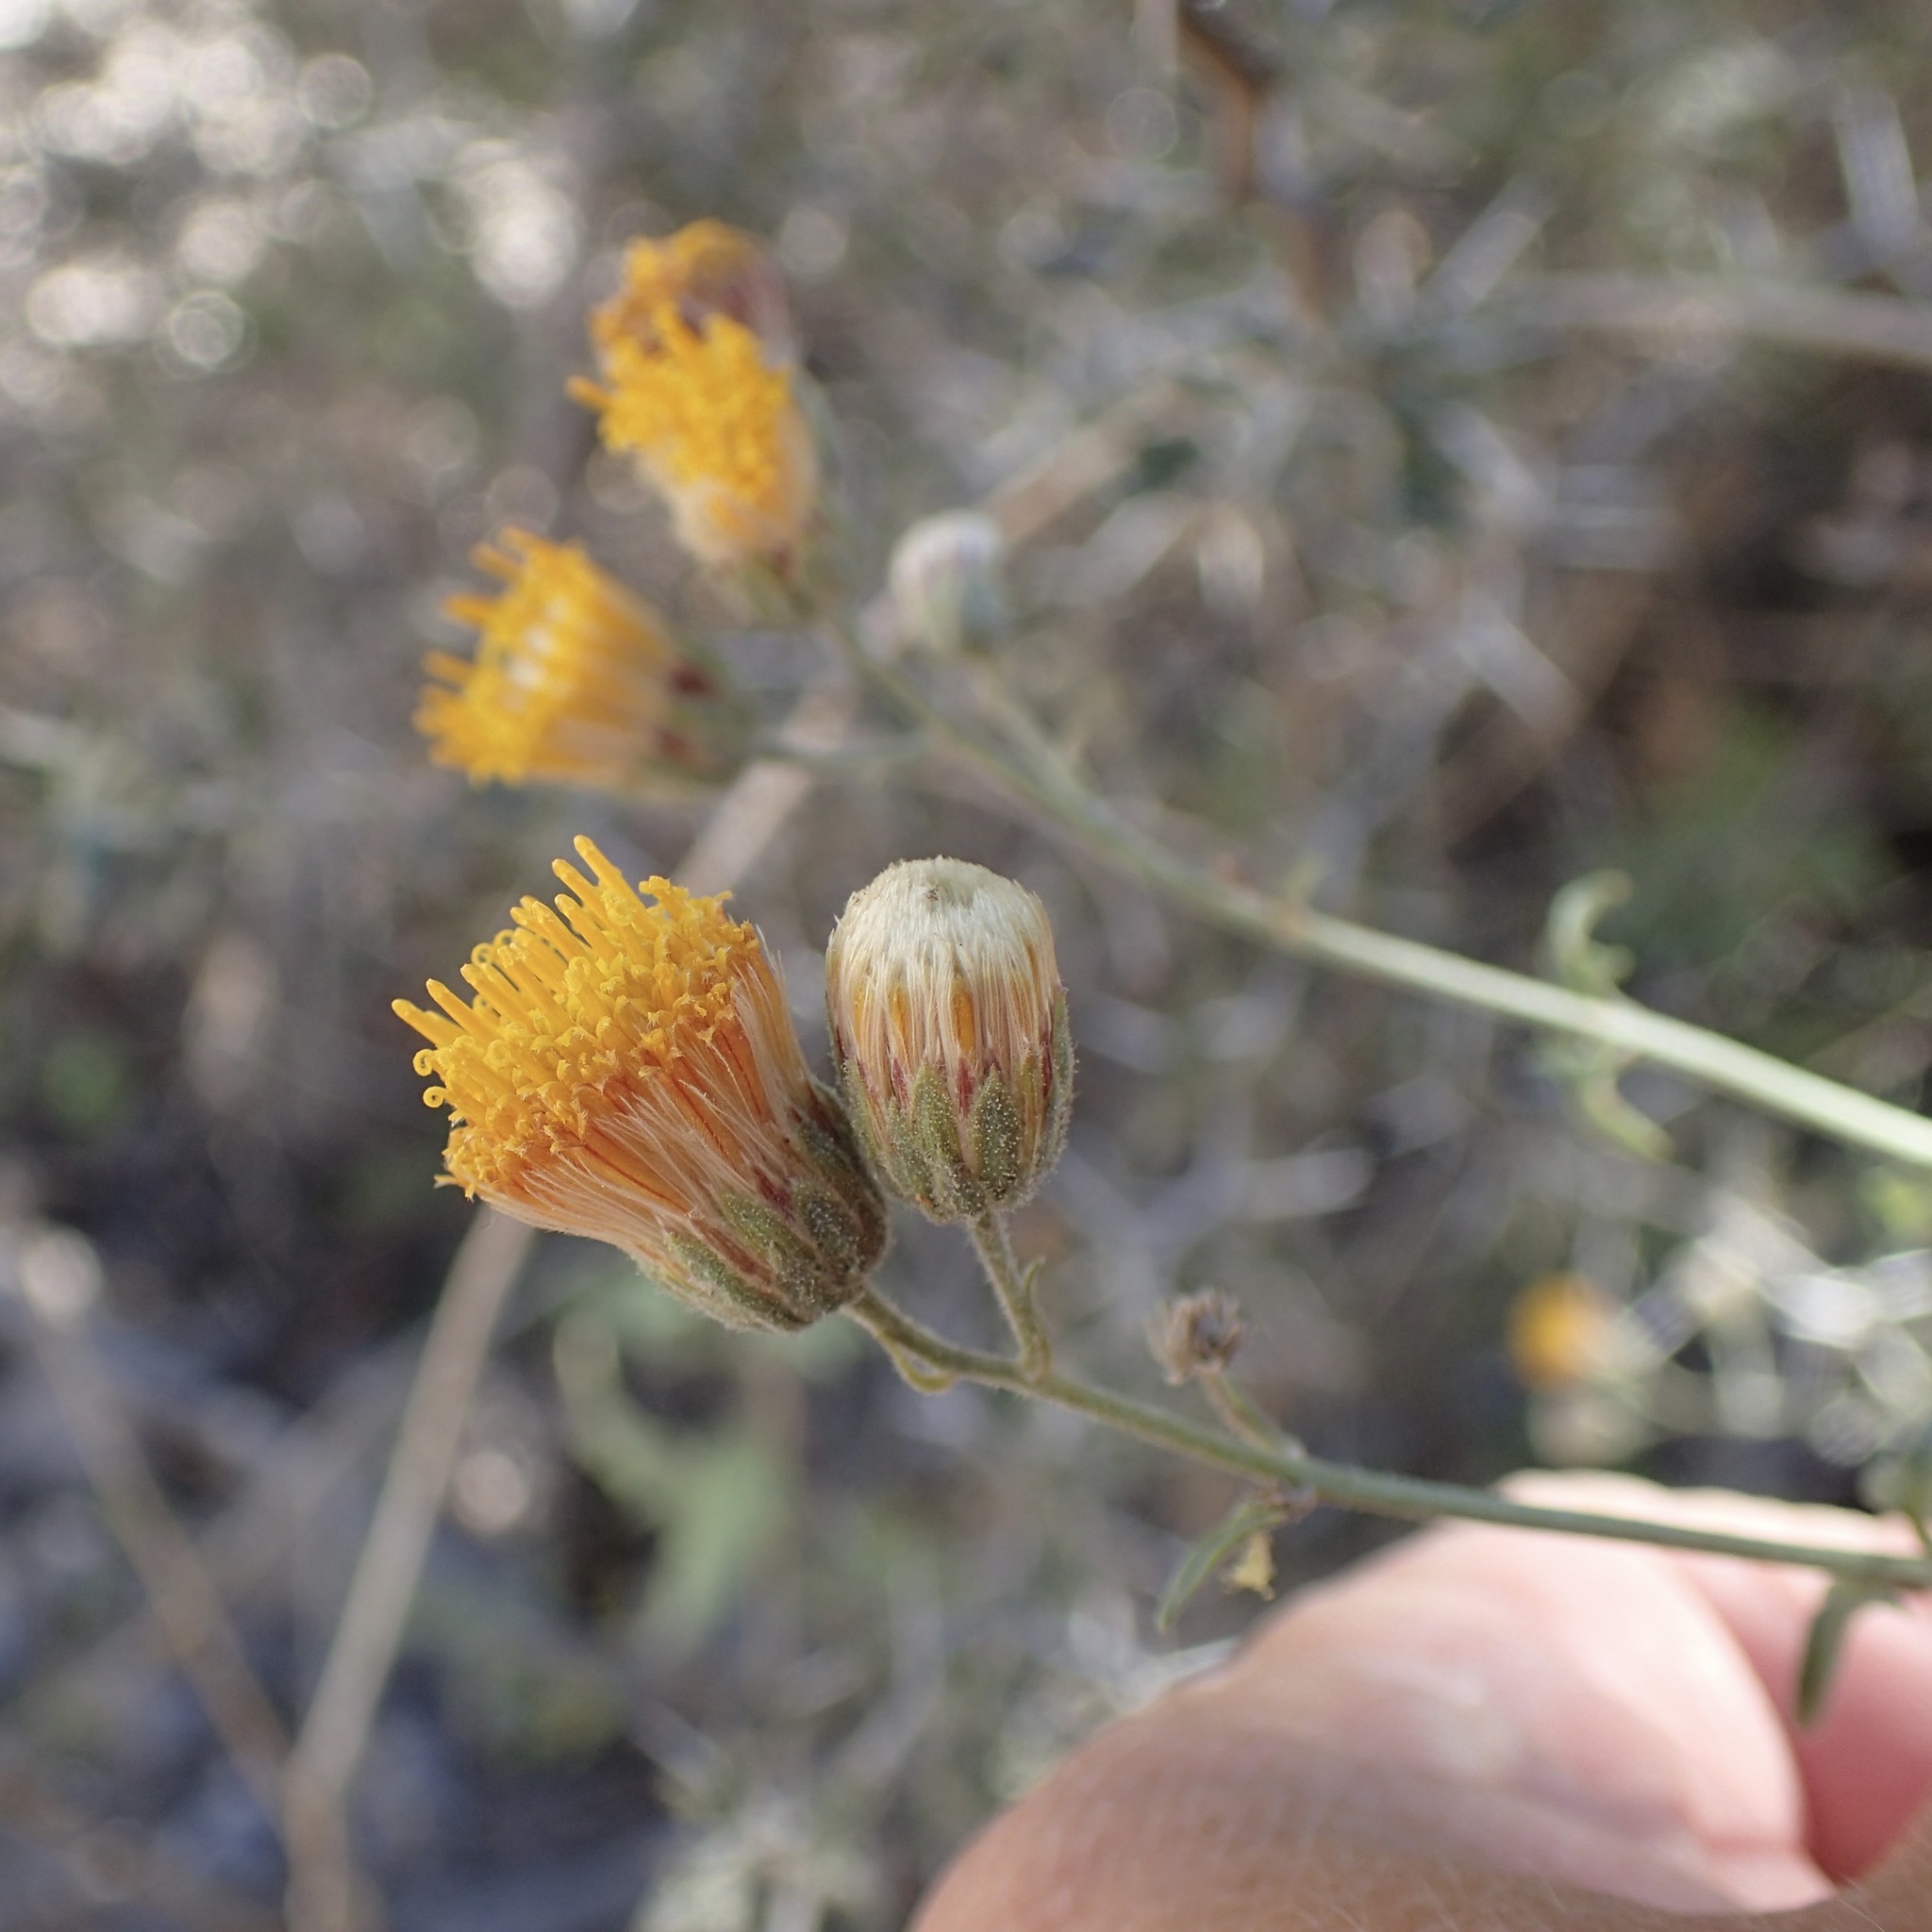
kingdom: Plantae
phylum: Tracheophyta
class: Magnoliopsida
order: Asterales
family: Asteraceae
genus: Bebbia
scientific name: Bebbia atriplicifolia
